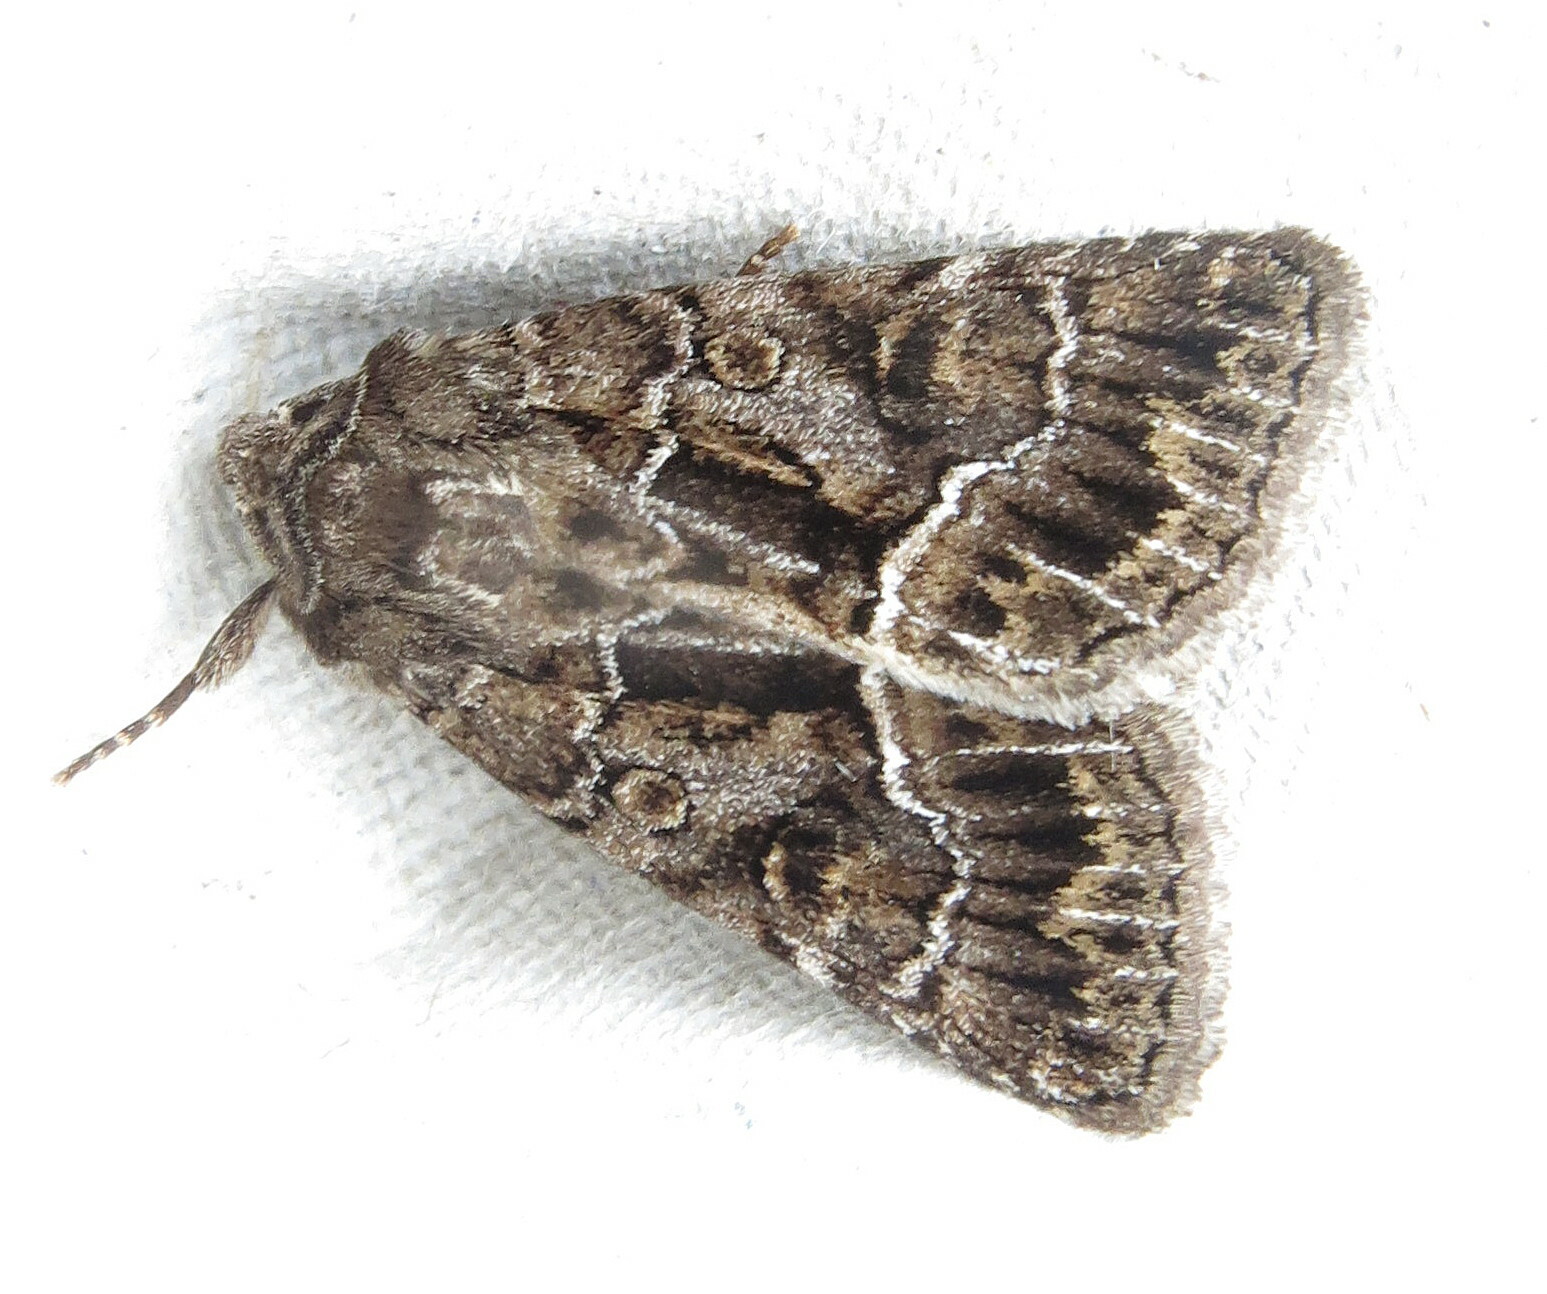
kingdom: Animalia
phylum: Arthropoda
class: Insecta
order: Lepidoptera
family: Noctuidae
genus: Thalpophila
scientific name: Thalpophila matura
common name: Straw underwing
